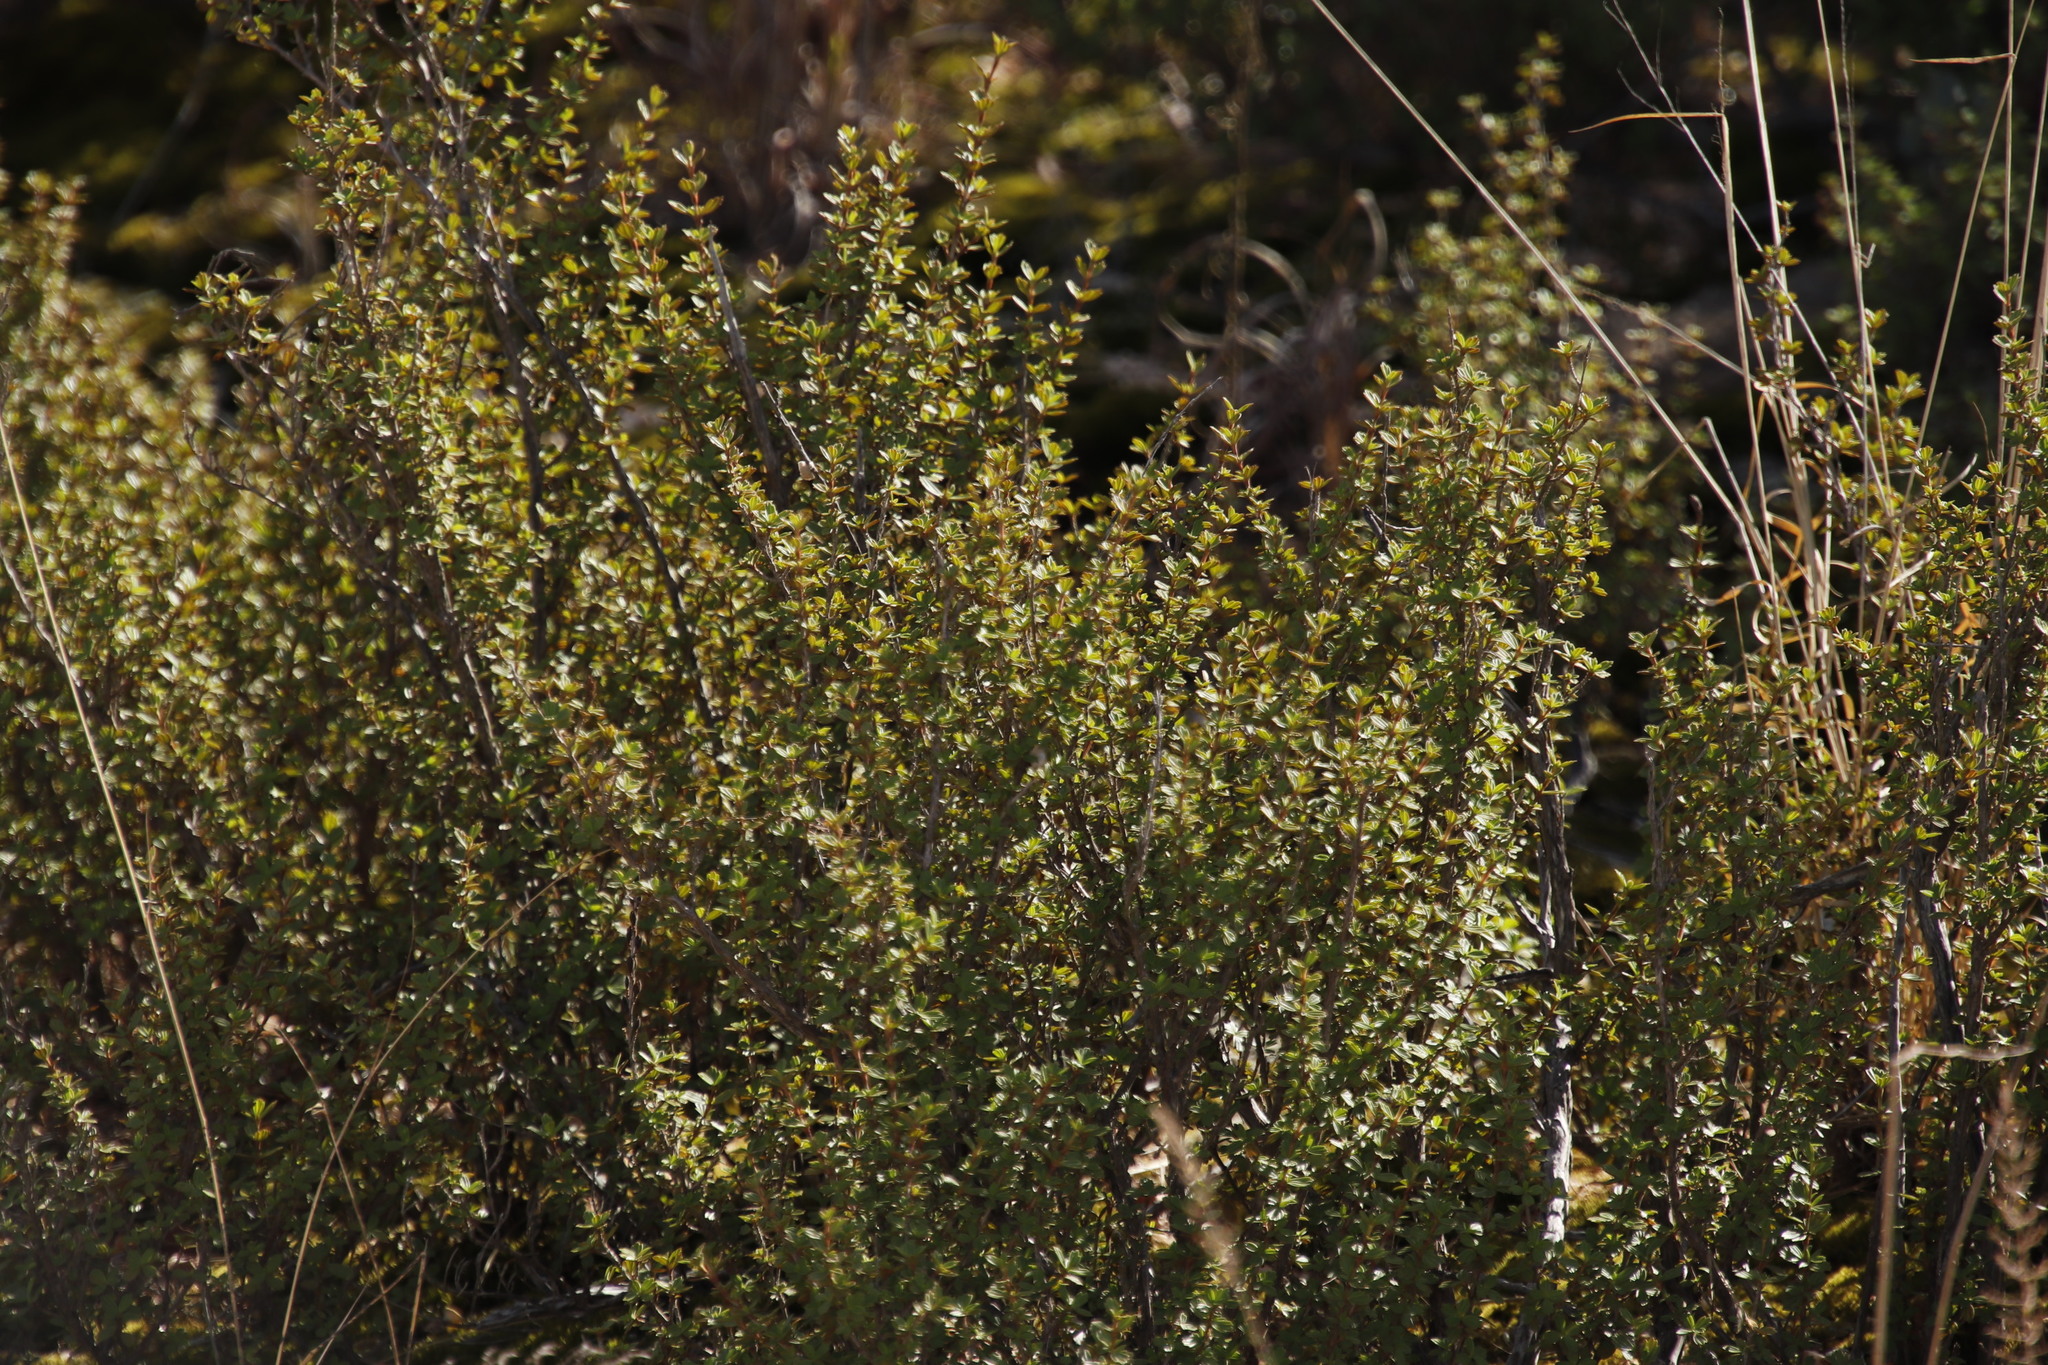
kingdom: Plantae
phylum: Tracheophyta
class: Magnoliopsida
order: Gunnerales
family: Myrothamnaceae
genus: Myrothamnus
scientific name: Myrothamnus flabellifolius
